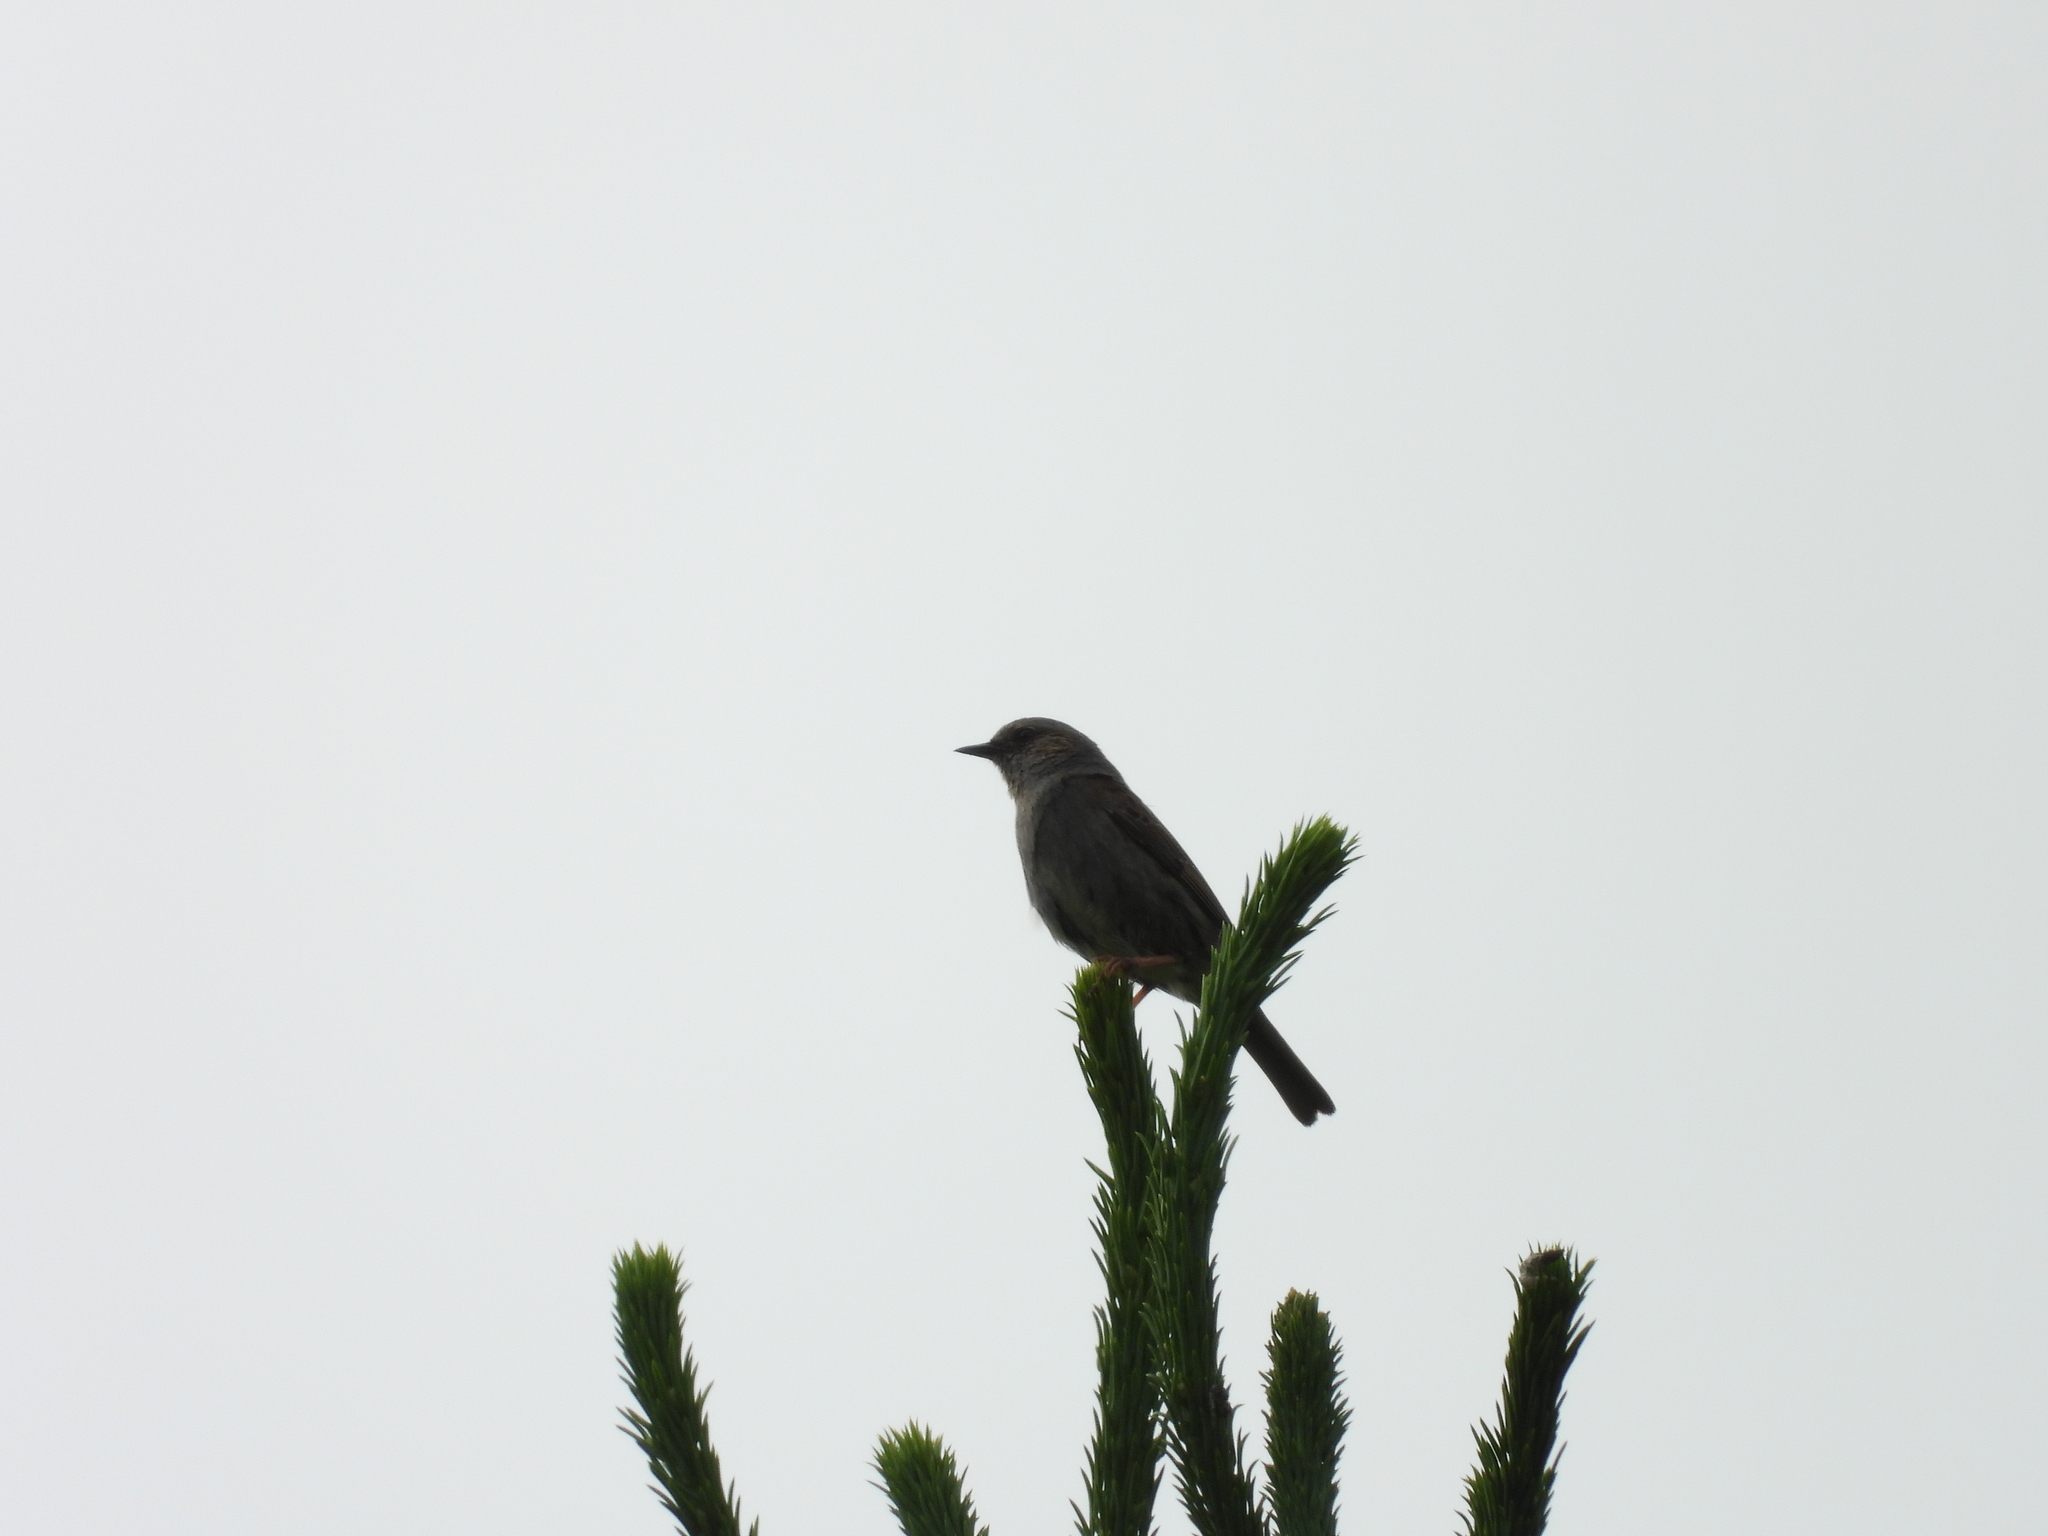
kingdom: Animalia
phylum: Chordata
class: Aves
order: Passeriformes
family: Prunellidae
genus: Prunella
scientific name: Prunella modularis
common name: Dunnock
